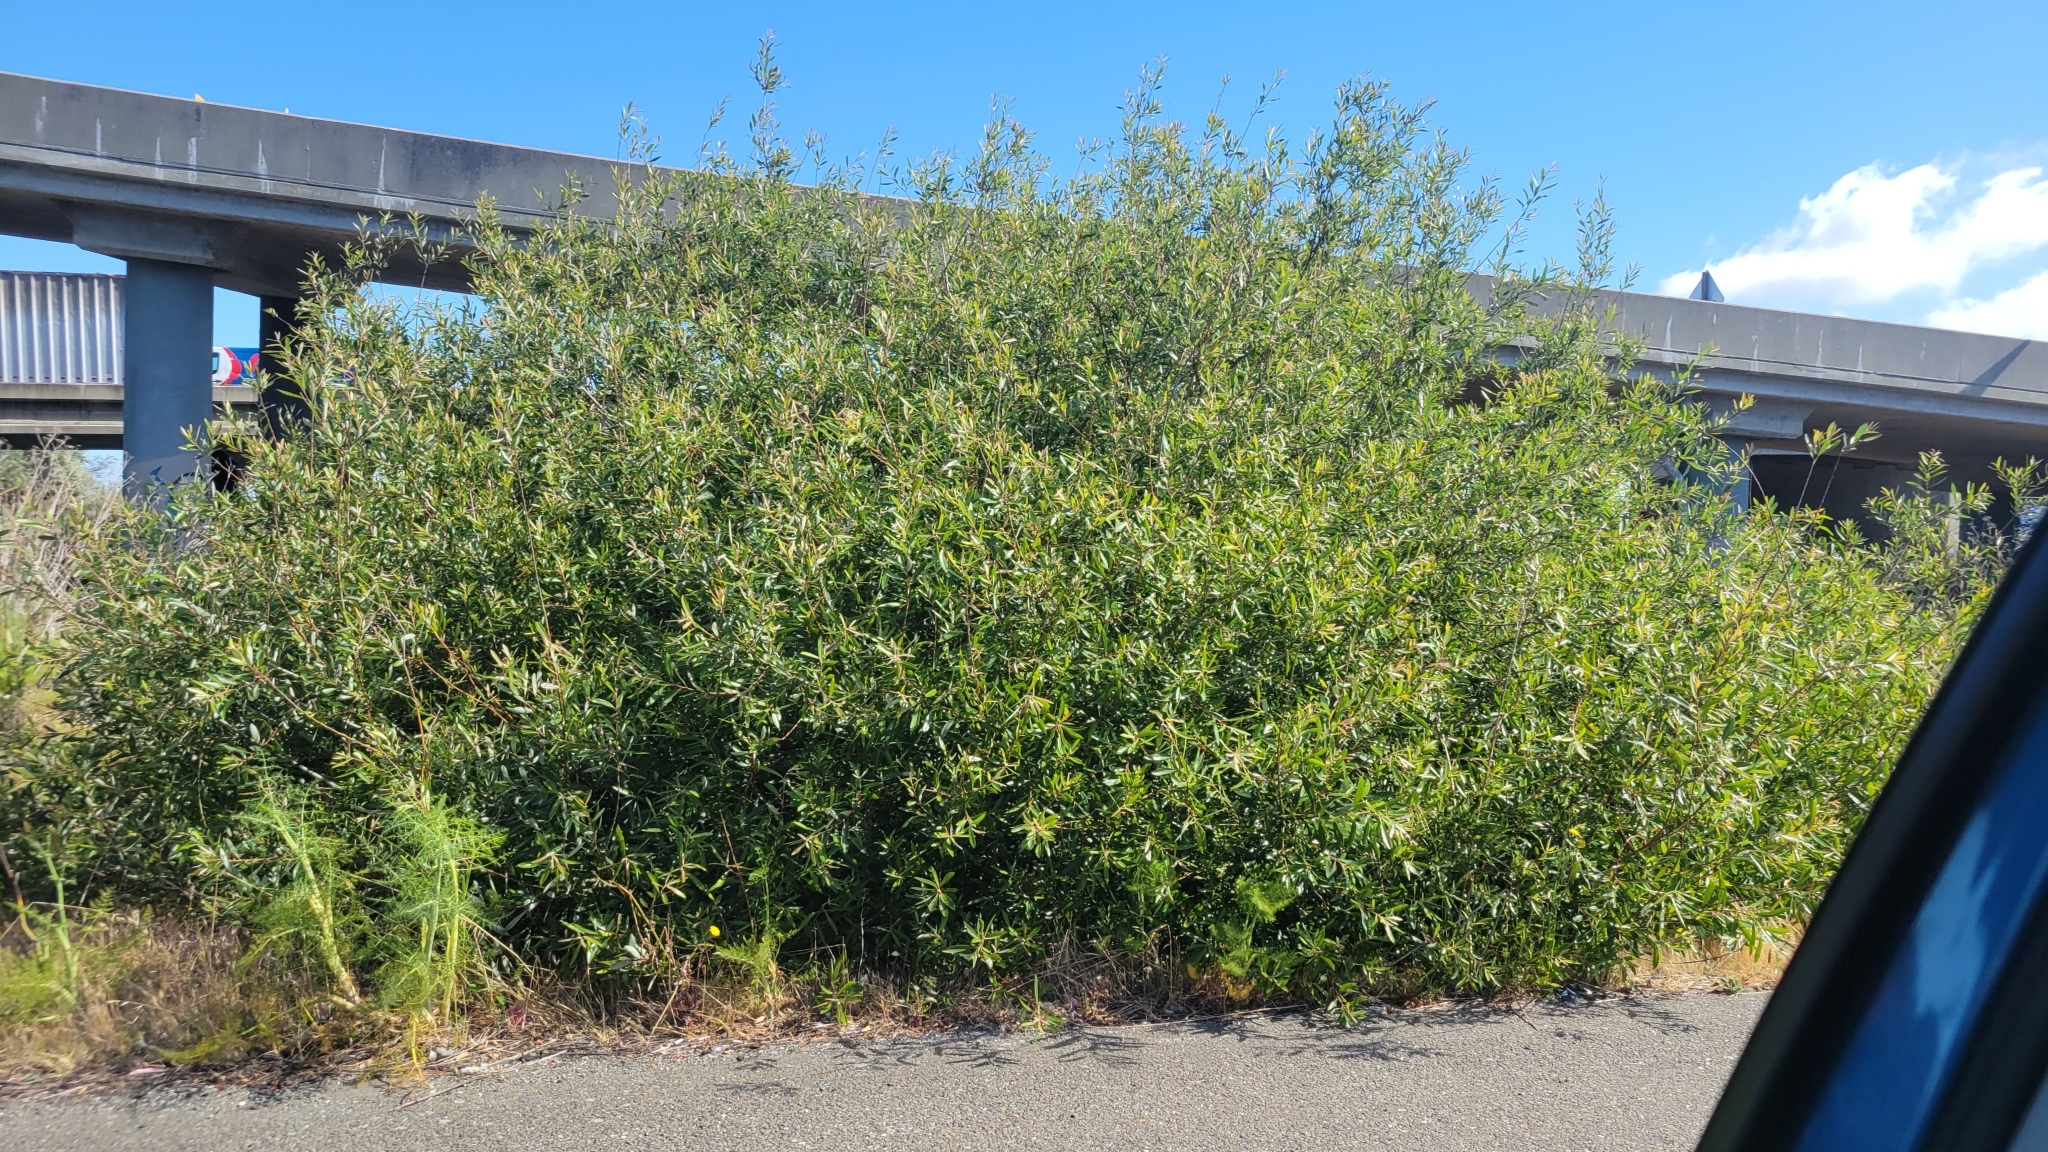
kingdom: Plantae
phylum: Tracheophyta
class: Magnoliopsida
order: Malpighiales
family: Salicaceae
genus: Salix
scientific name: Salix lasiolepis
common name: Arroyo willow
